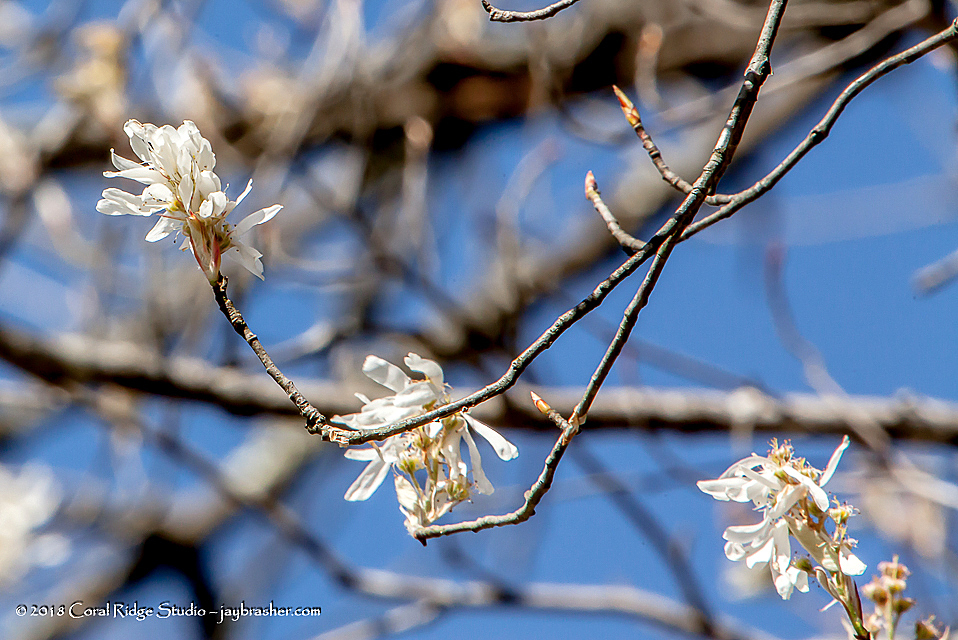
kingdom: Plantae
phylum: Tracheophyta
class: Magnoliopsida
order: Rosales
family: Rosaceae
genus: Amelanchier
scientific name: Amelanchier arborea
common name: Downy serviceberry
